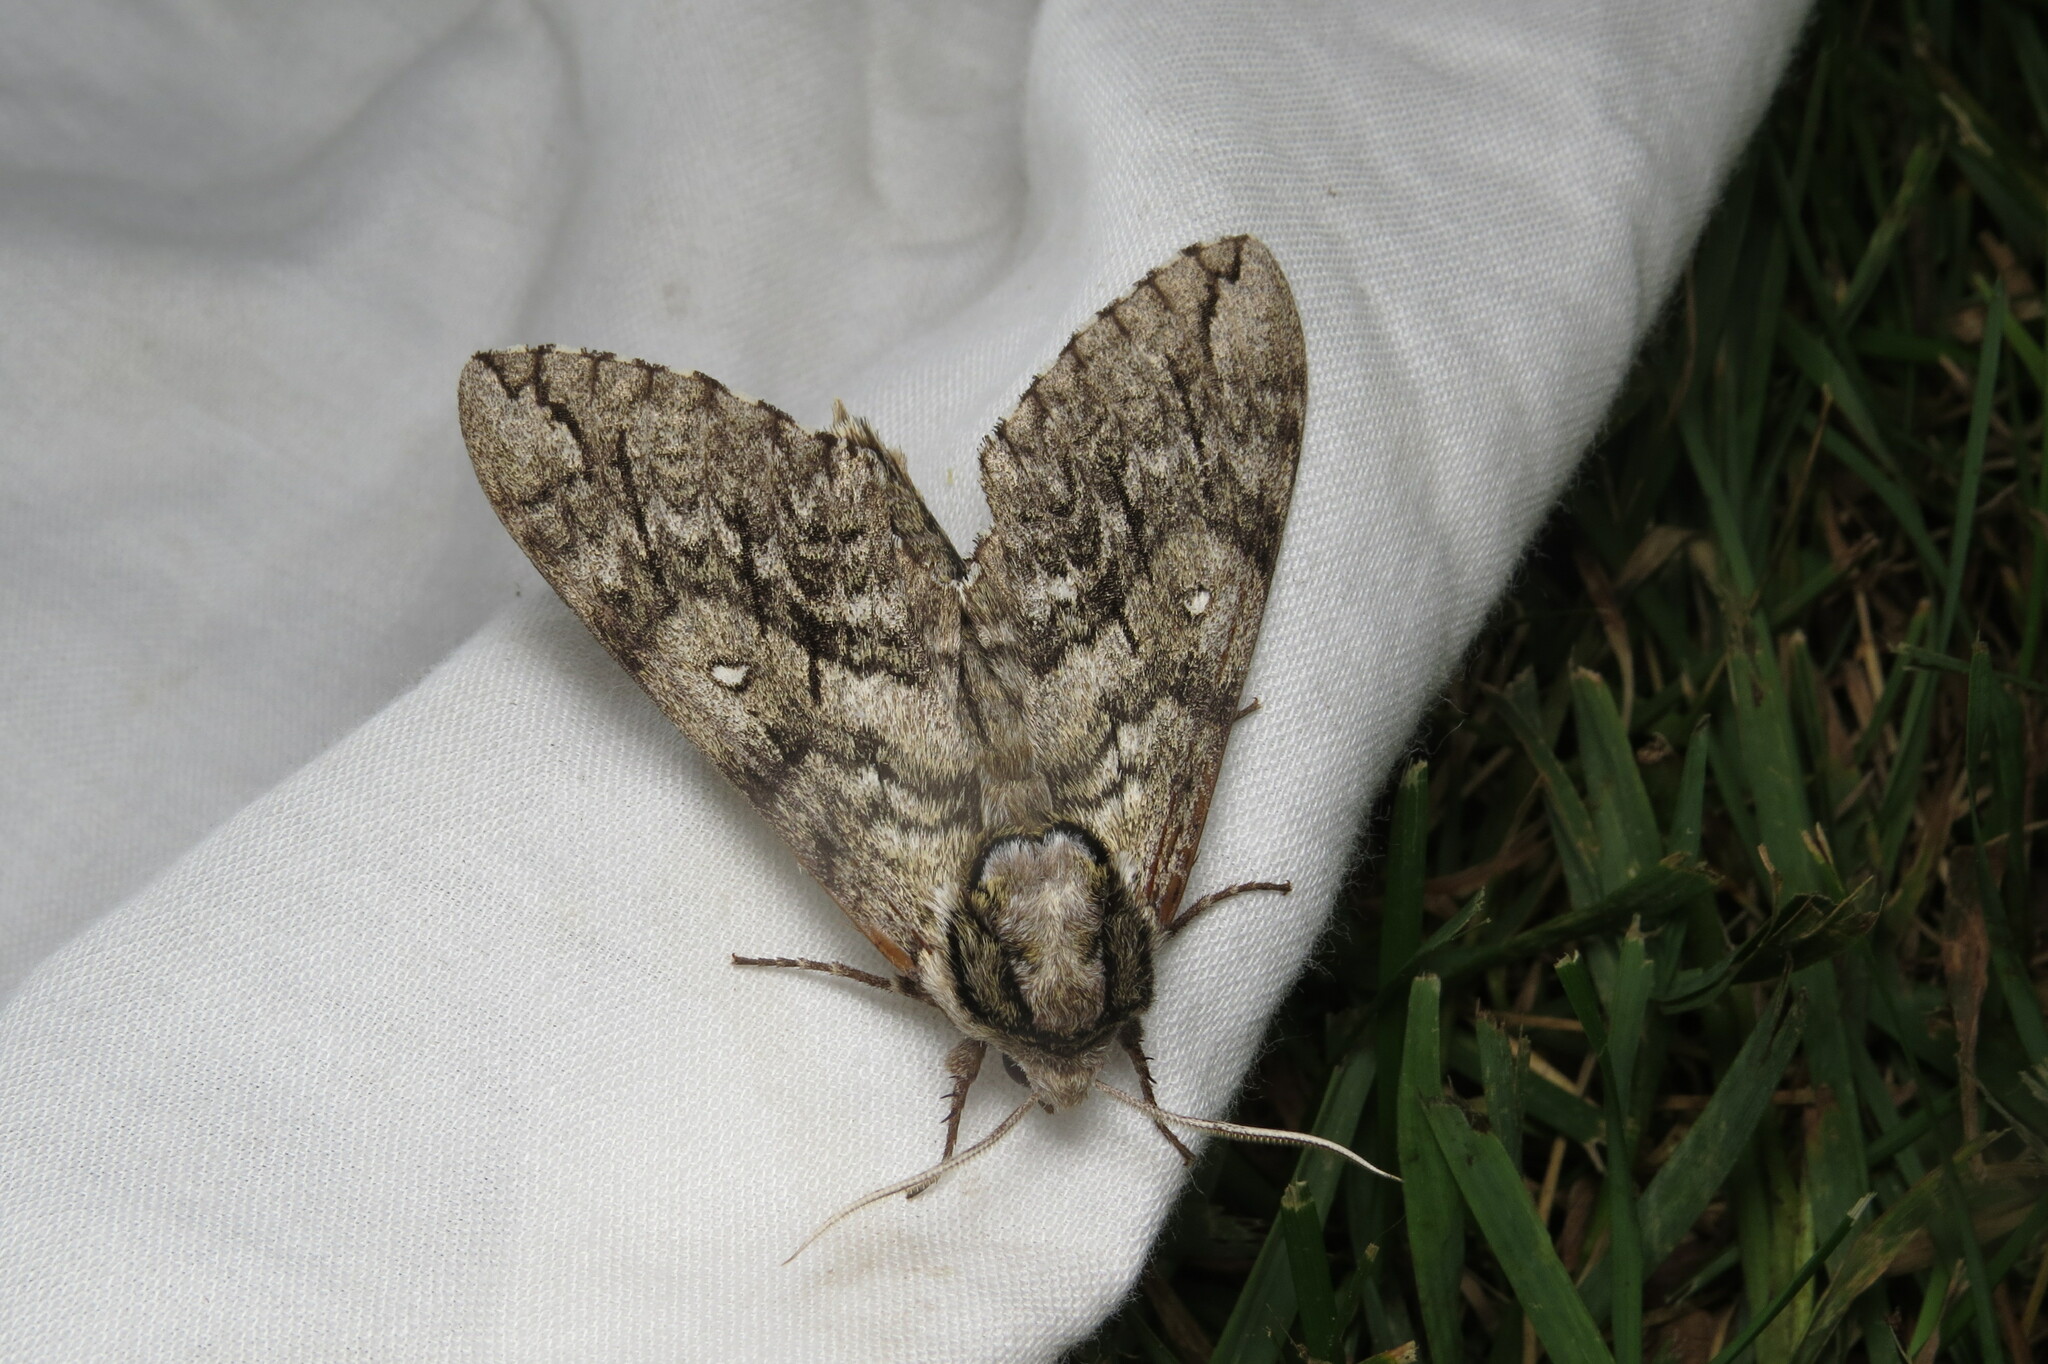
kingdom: Animalia
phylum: Arthropoda
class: Insecta
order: Lepidoptera
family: Sphingidae
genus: Ceratomia
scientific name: Ceratomia undulosa
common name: Waved sphinx
